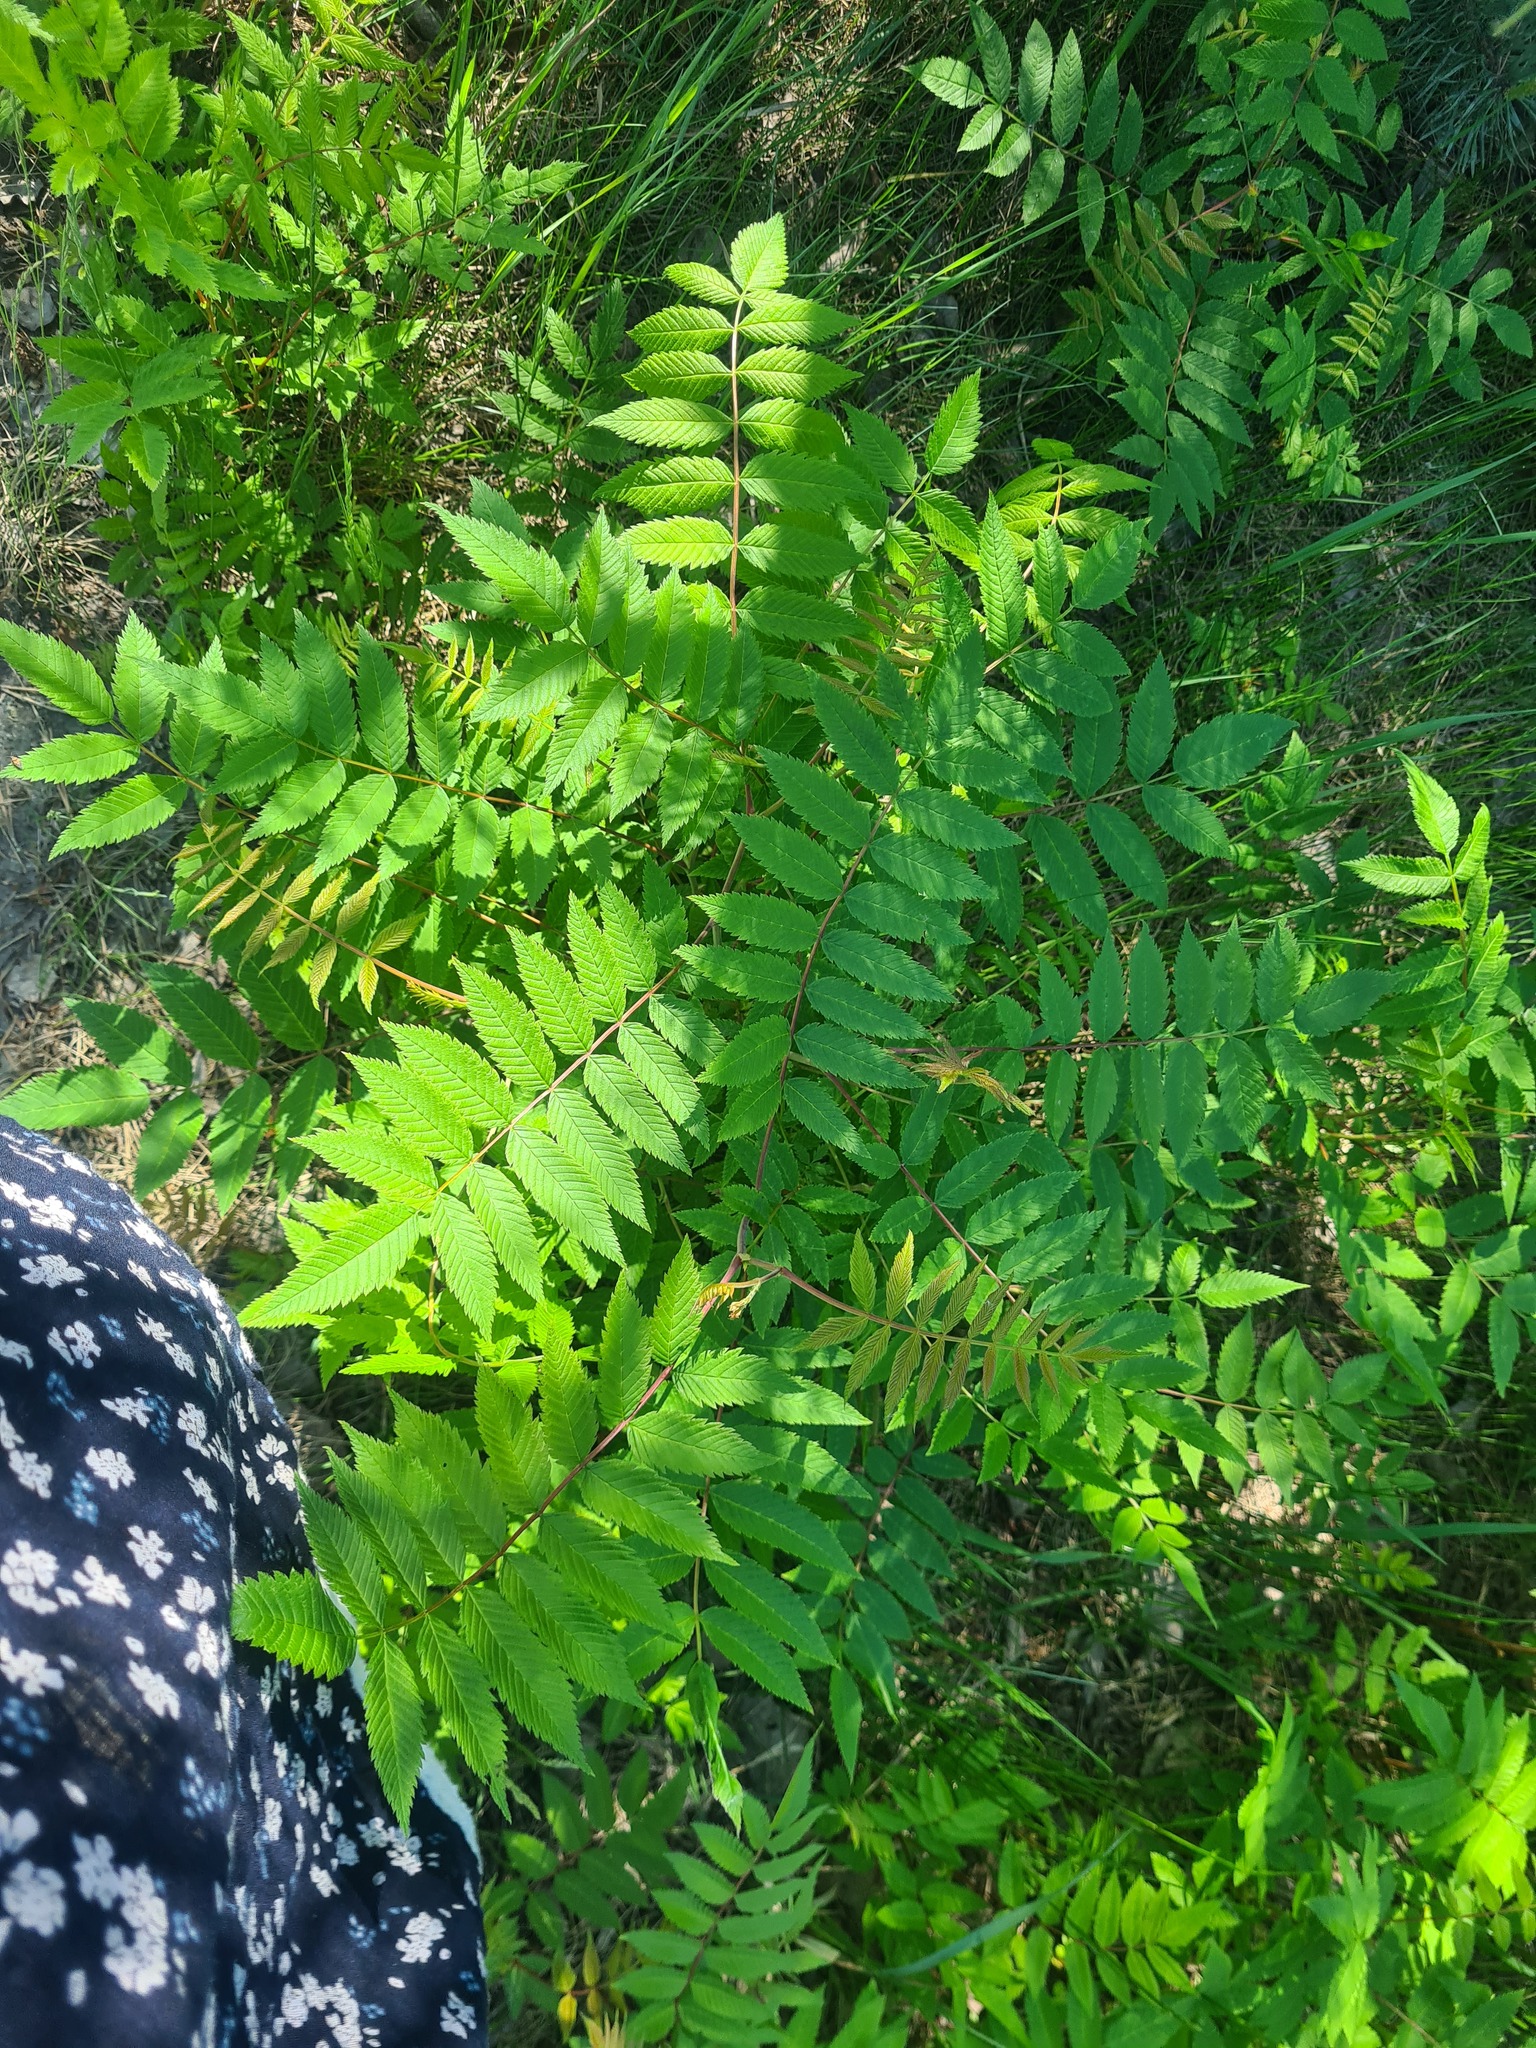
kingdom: Plantae
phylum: Tracheophyta
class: Magnoliopsida
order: Rosales
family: Rosaceae
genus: Sorbaria
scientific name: Sorbaria sorbifolia
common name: False spiraea
